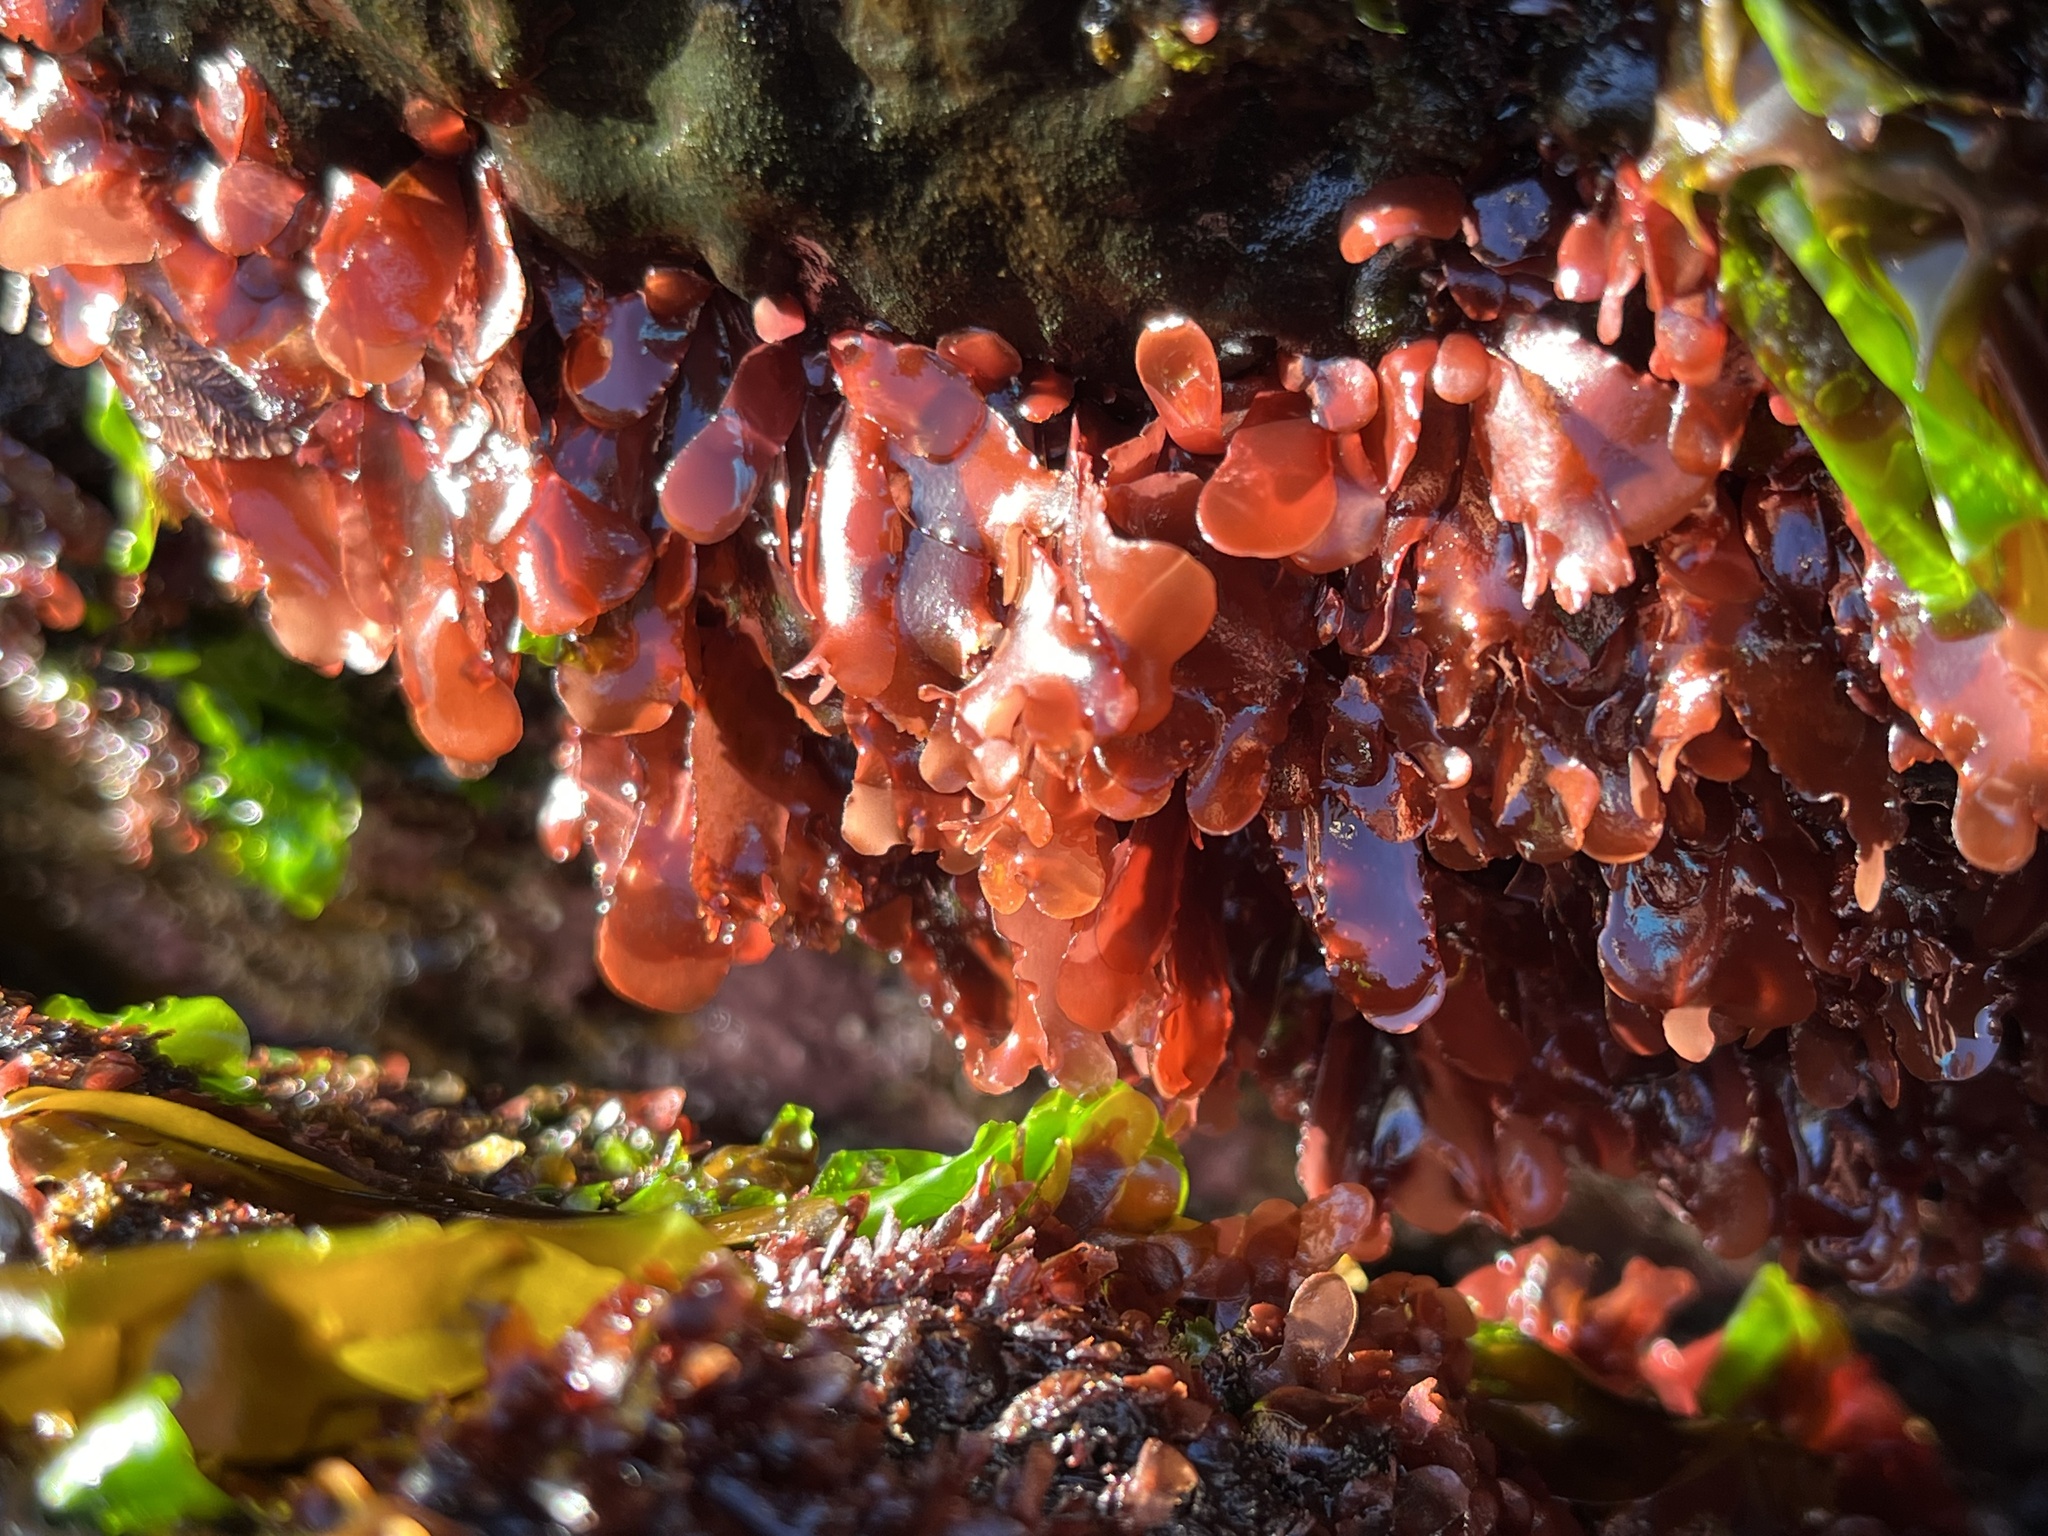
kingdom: Plantae
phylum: Rhodophyta
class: Florideophyceae
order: Gigartinales
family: Phyllophoraceae
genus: Schottera
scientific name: Schottera nicaeensis
